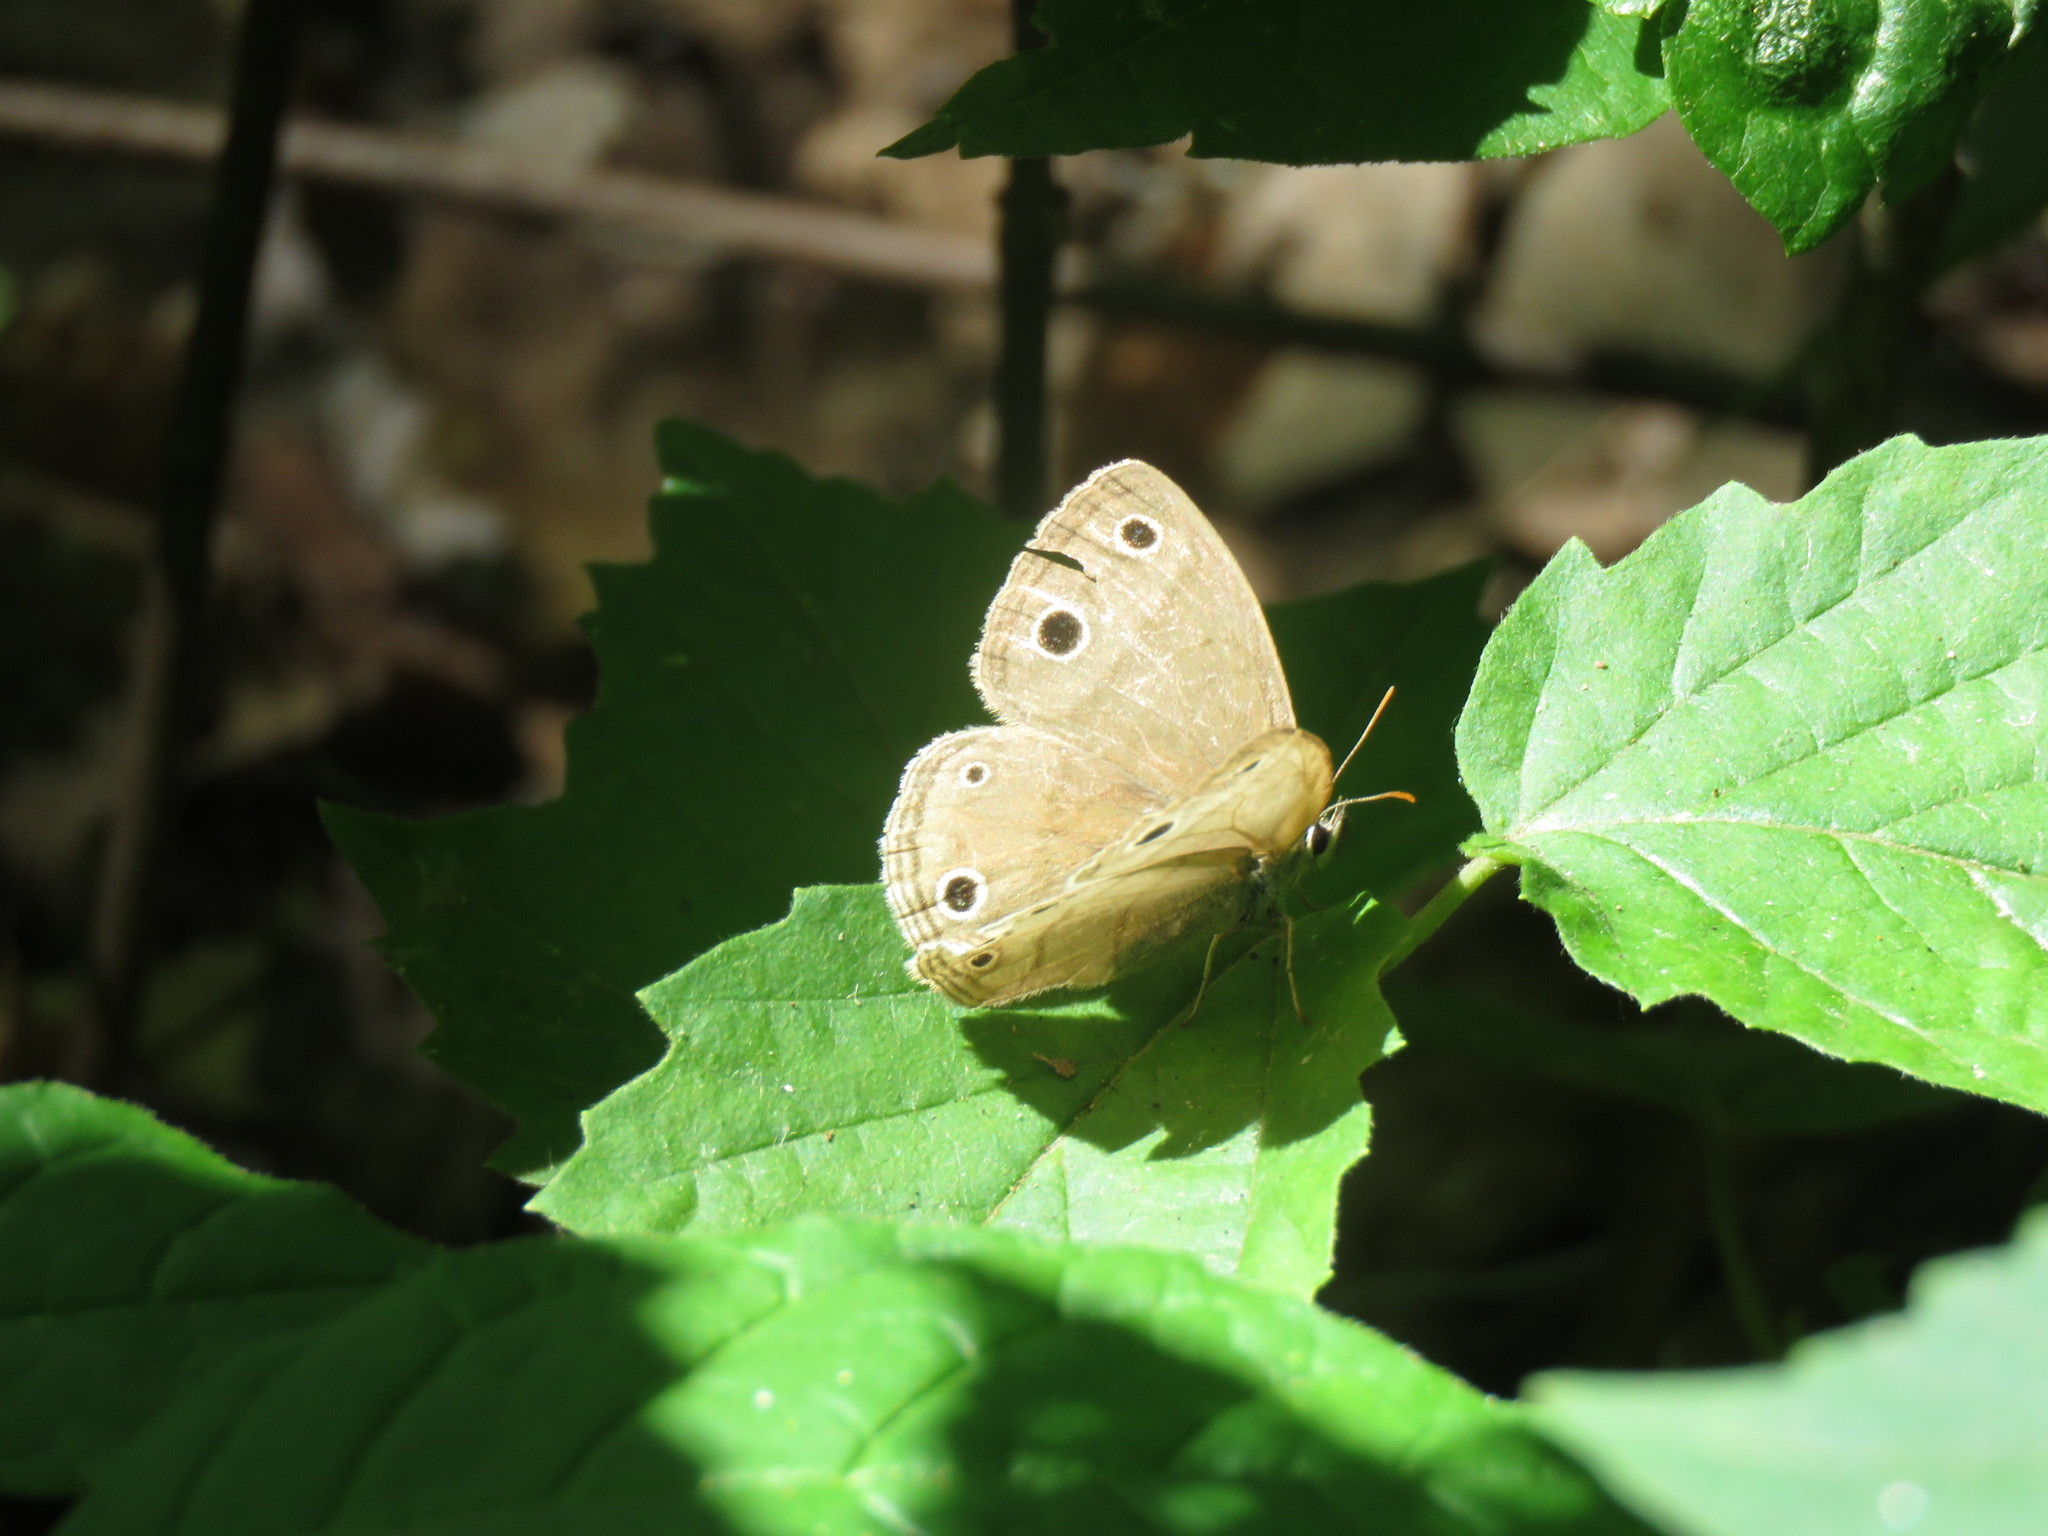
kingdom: Animalia
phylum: Arthropoda
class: Insecta
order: Lepidoptera
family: Nymphalidae
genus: Euptychia
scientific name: Euptychia cymela
